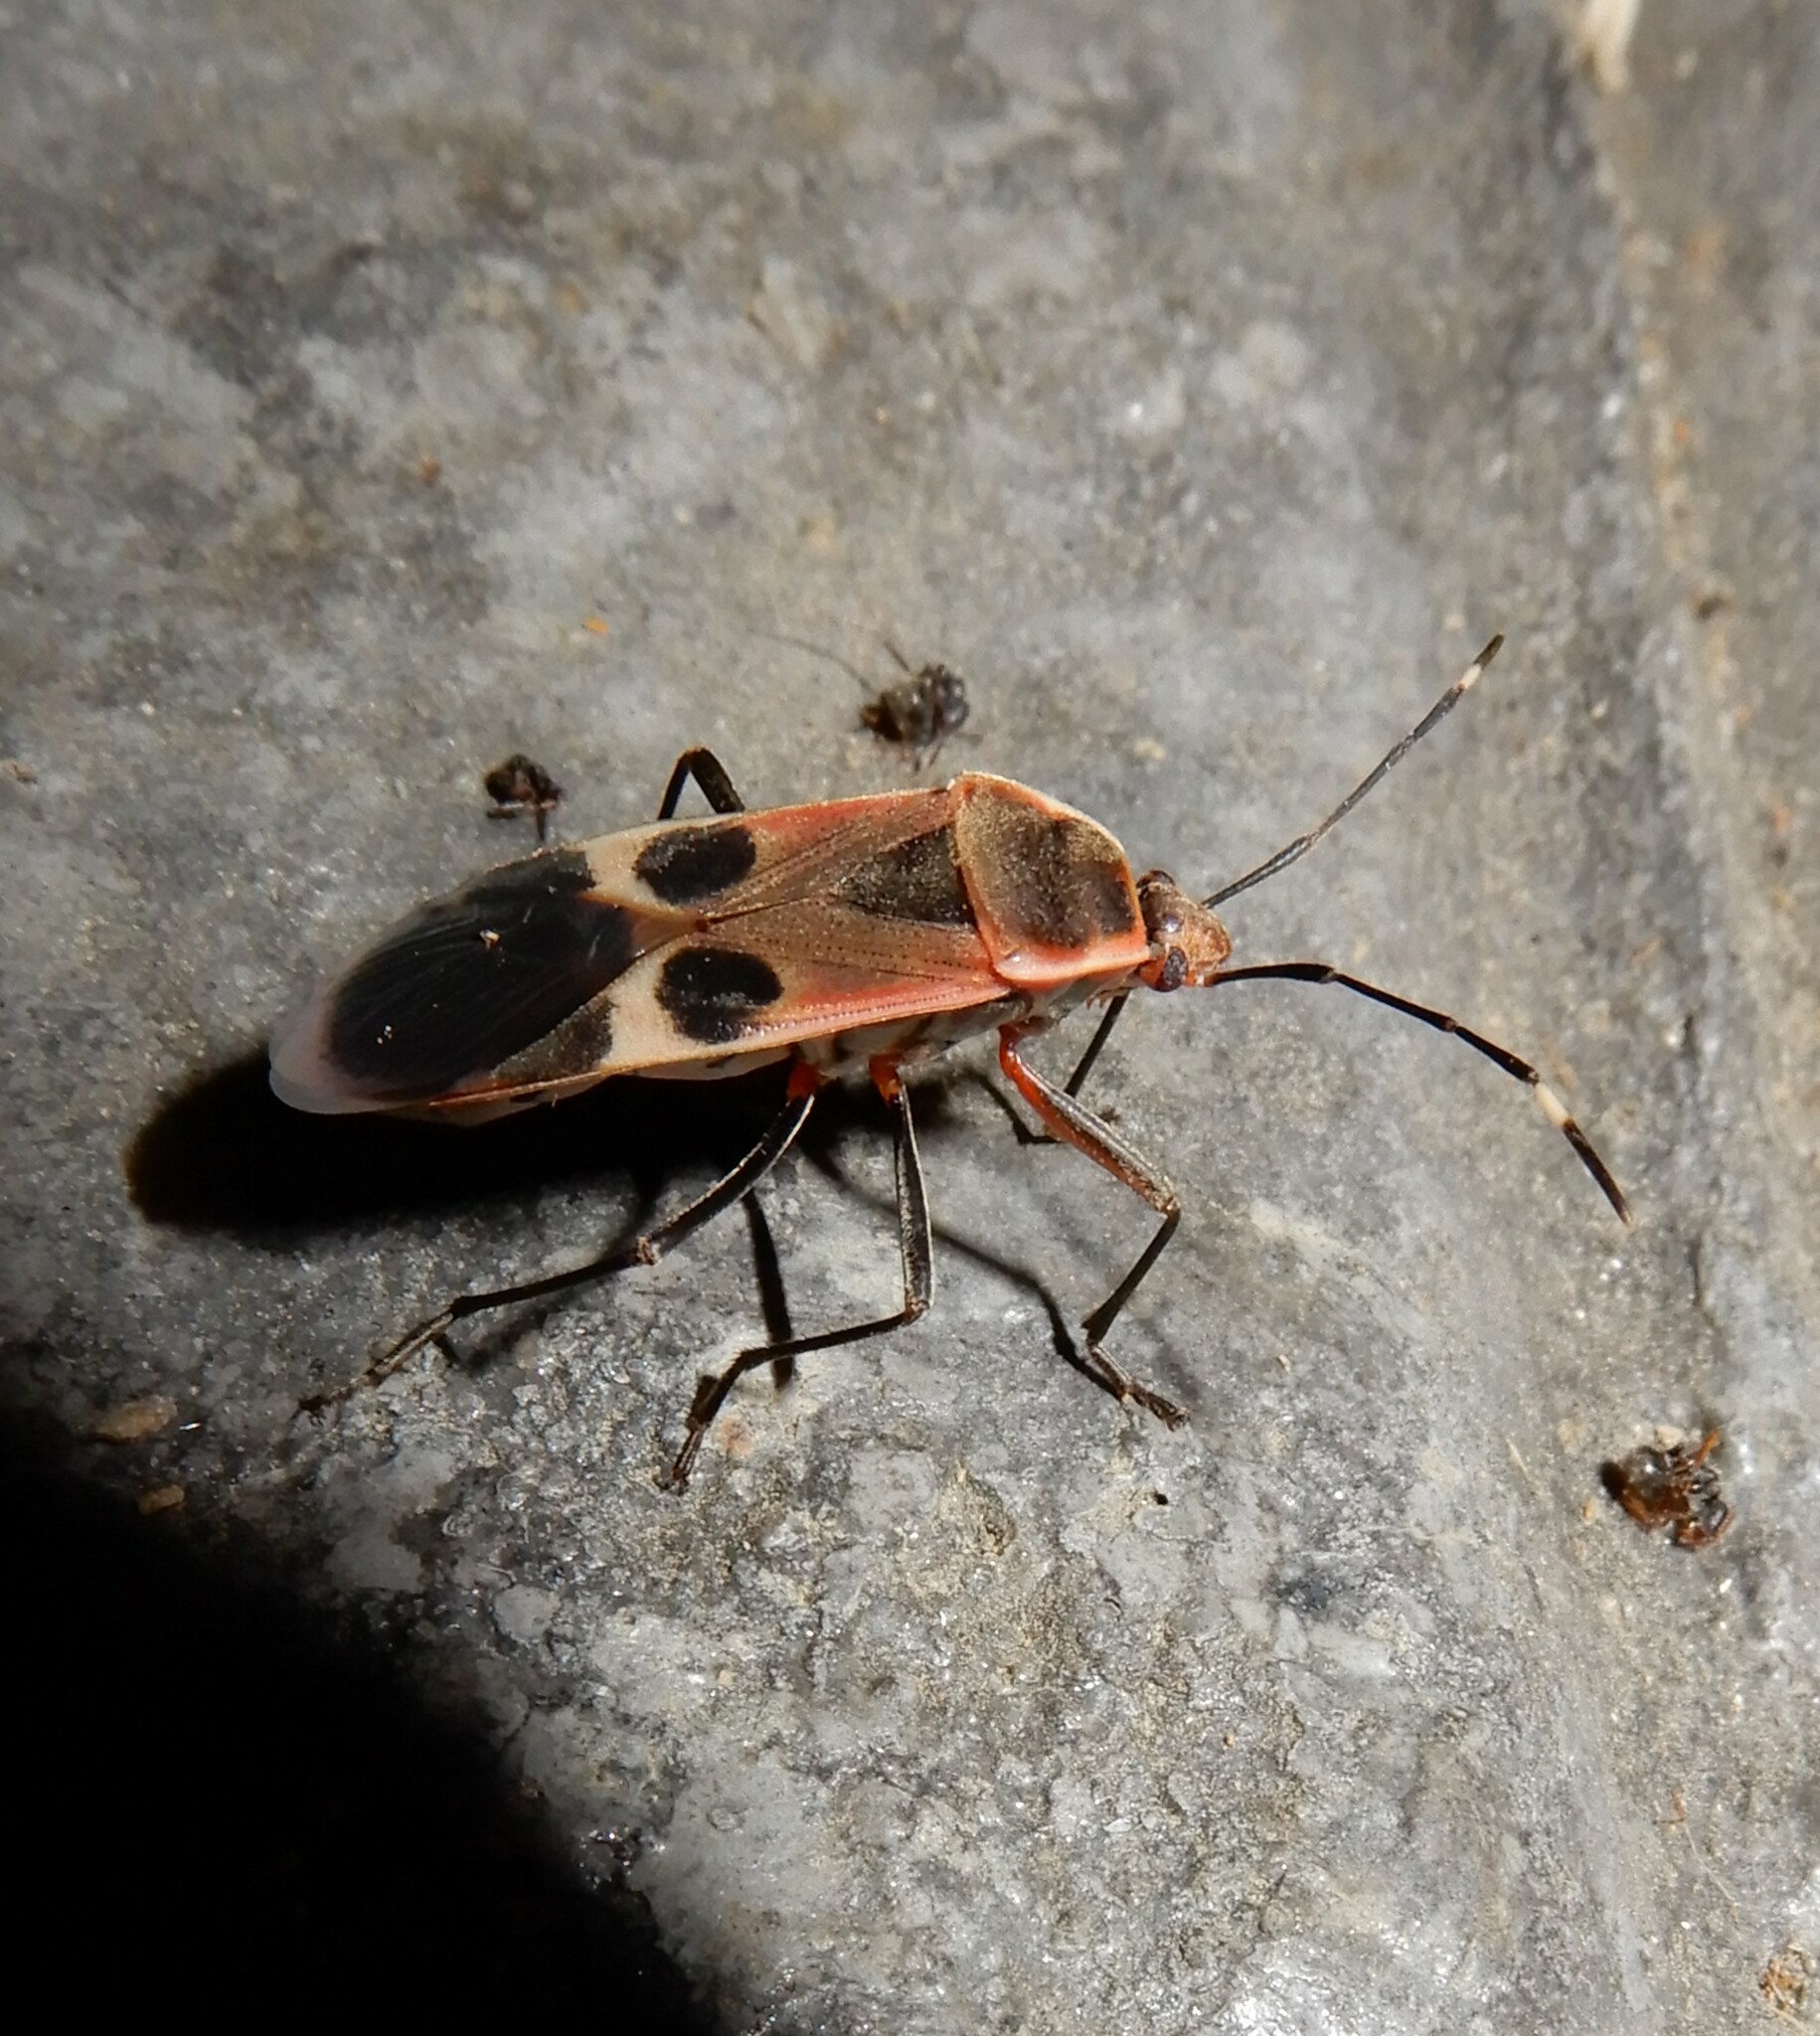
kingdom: Animalia
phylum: Arthropoda
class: Insecta
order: Hemiptera
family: Largidae
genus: Physopelta
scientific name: Physopelta gutta
